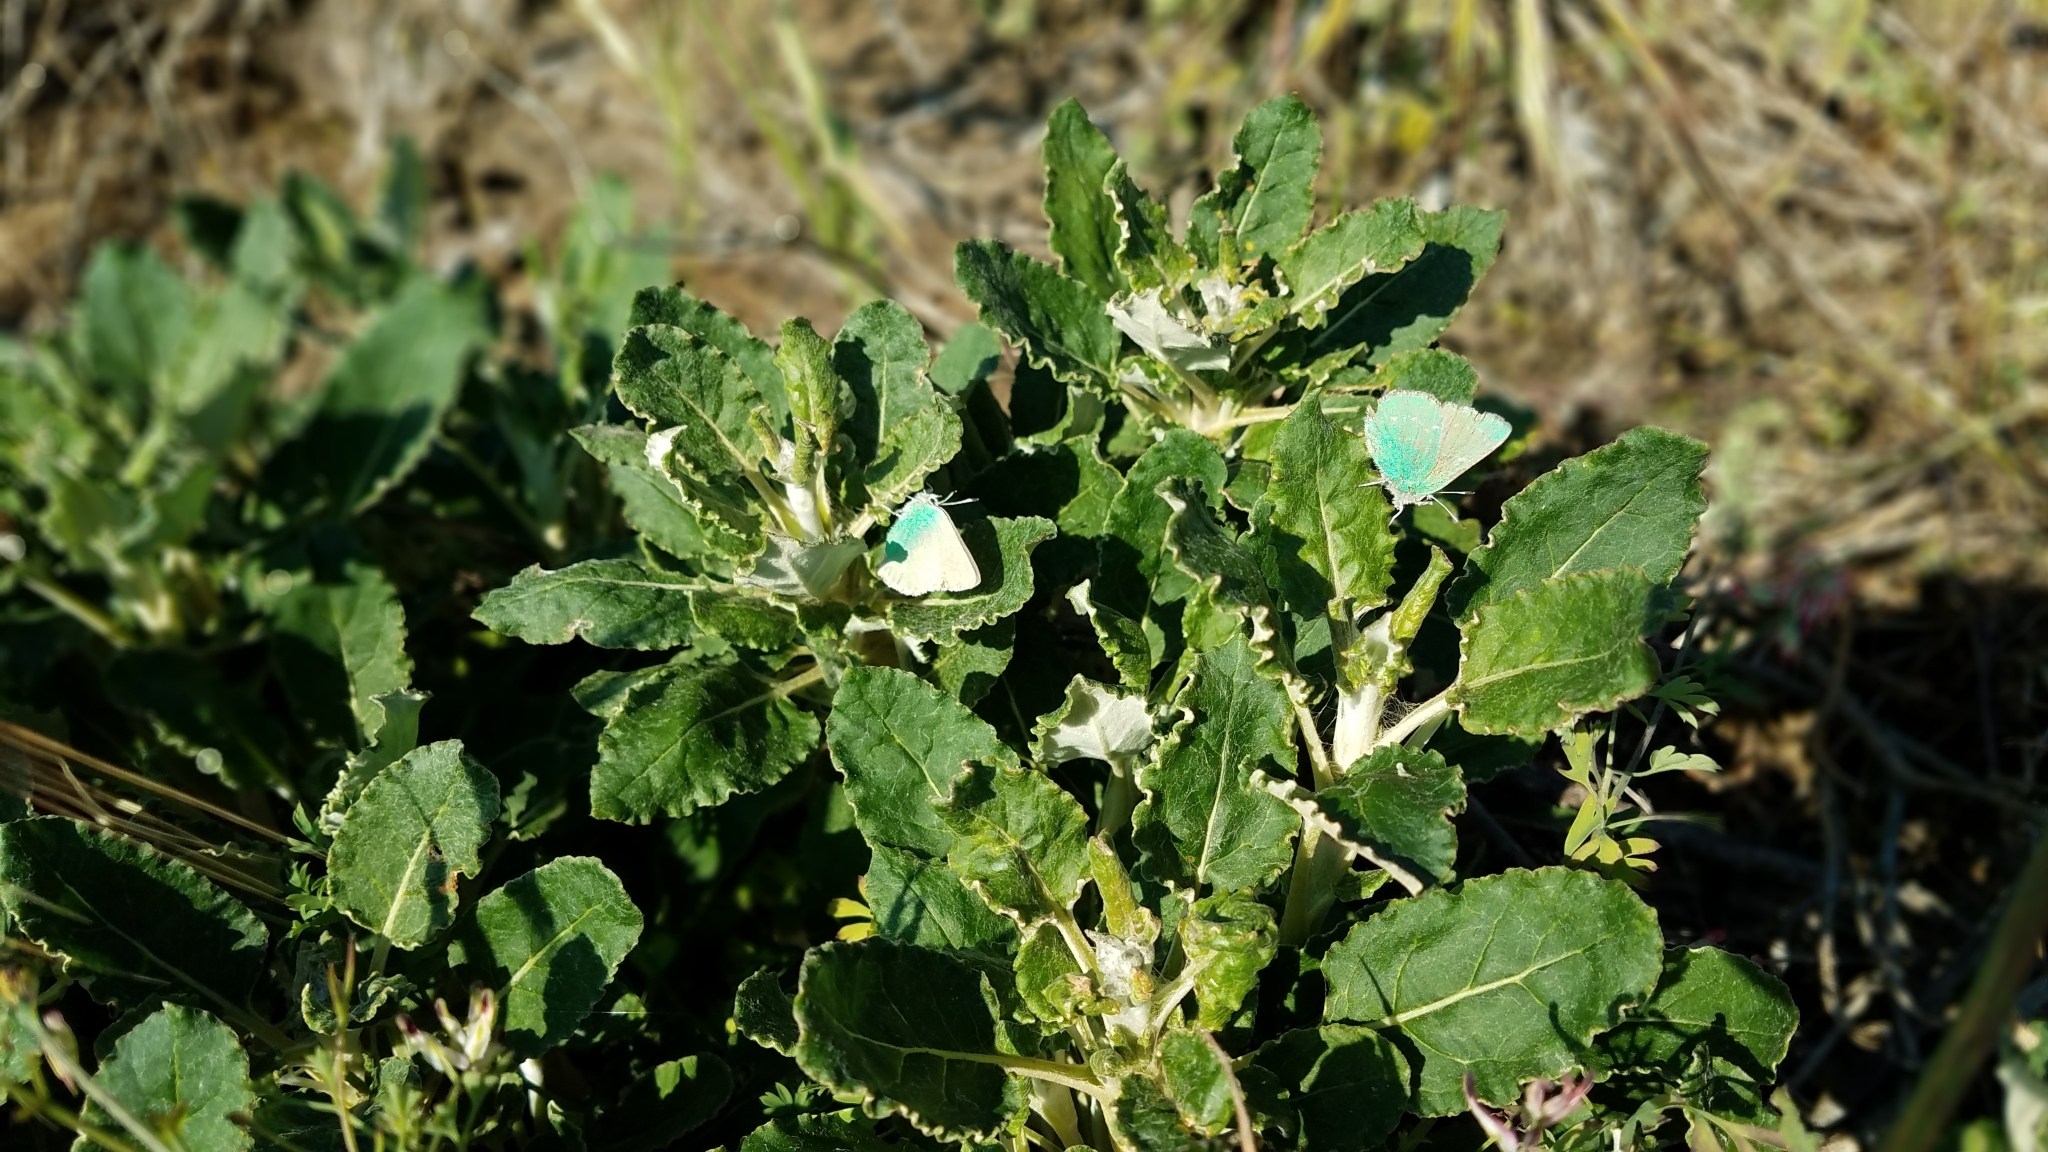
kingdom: Animalia
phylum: Arthropoda
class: Insecta
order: Lepidoptera
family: Lycaenidae
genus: Callophrys
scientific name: Callophrys viridis
